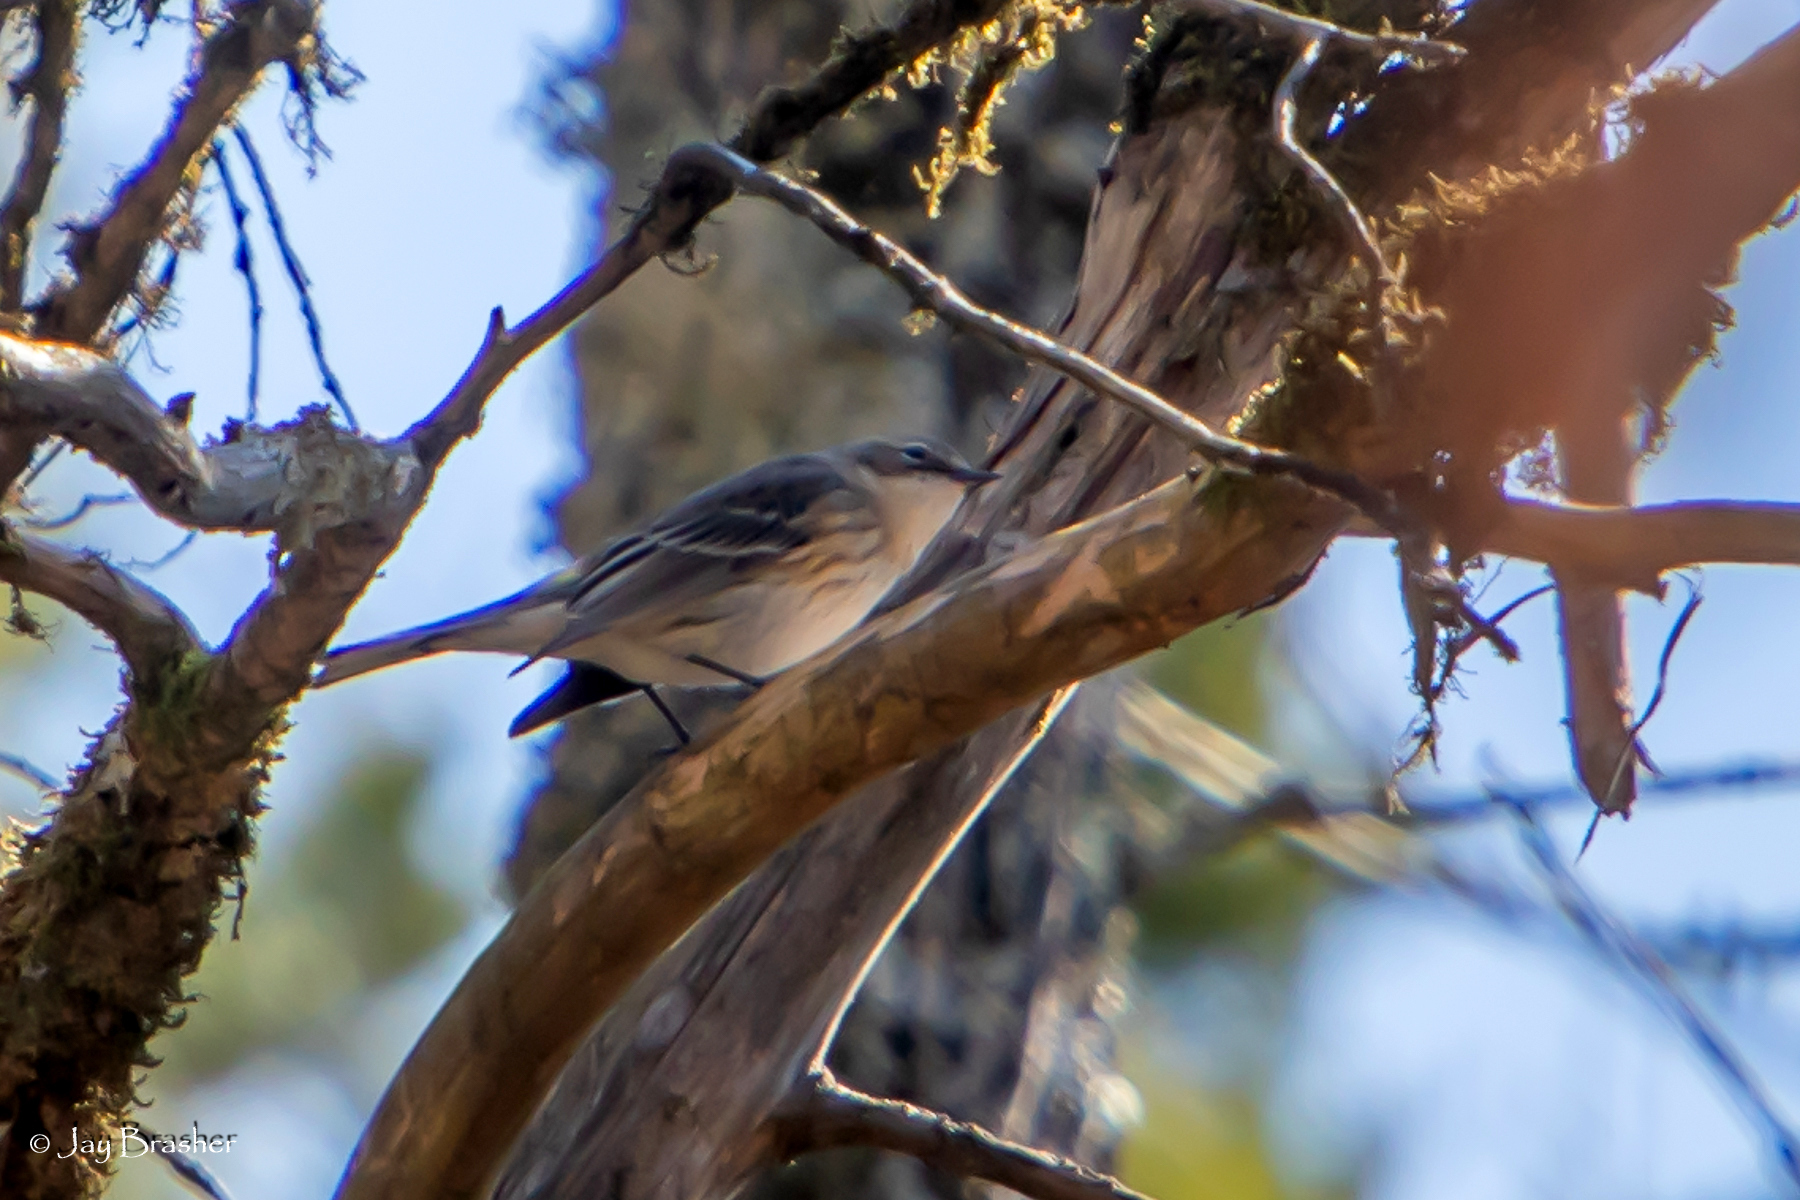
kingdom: Animalia
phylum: Chordata
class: Aves
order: Passeriformes
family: Parulidae
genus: Setophaga
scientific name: Setophaga coronata
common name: Myrtle warbler
